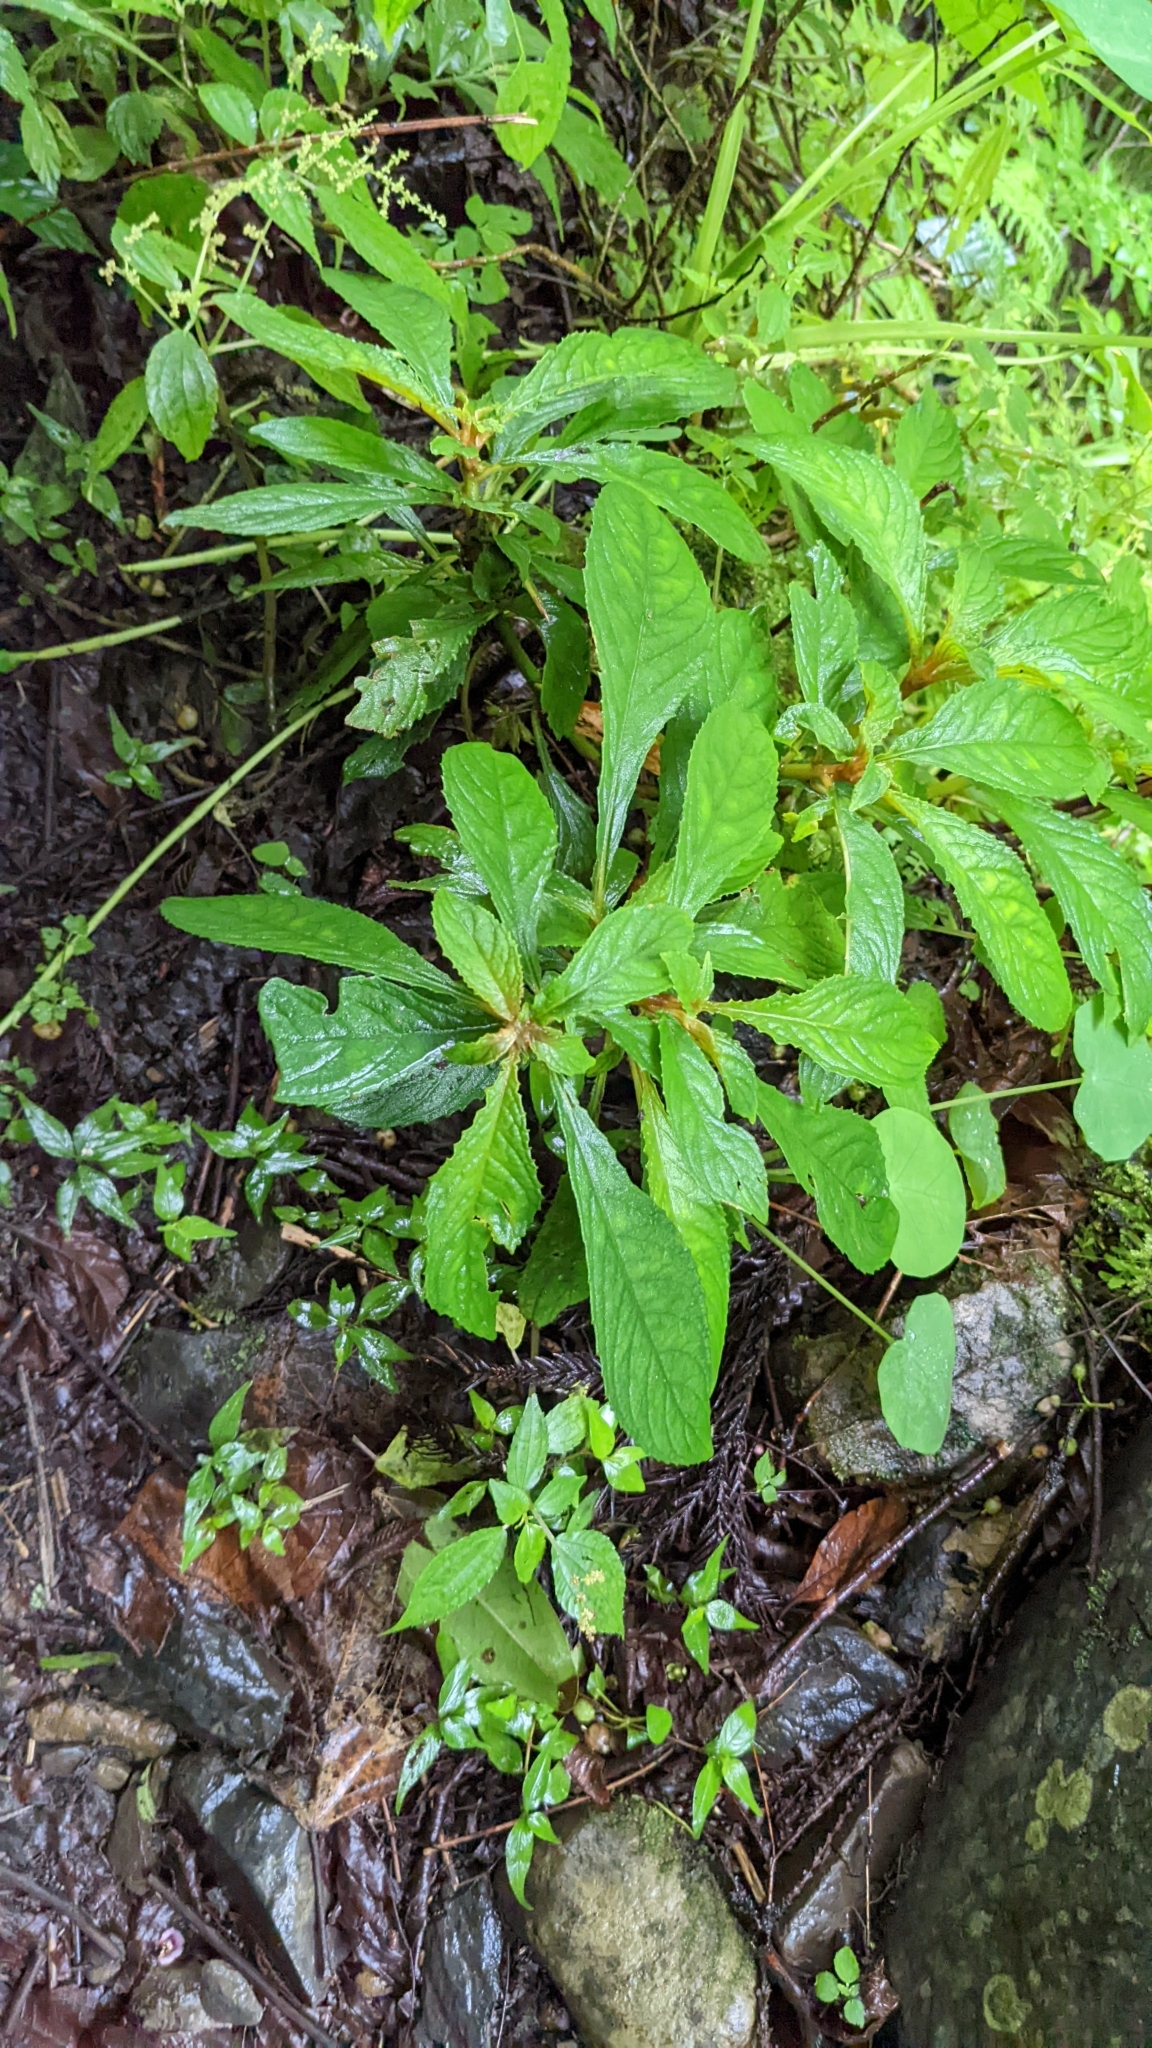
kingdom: Plantae
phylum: Tracheophyta
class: Magnoliopsida
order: Lamiales
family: Gesneriaceae
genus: Rhynchotechum
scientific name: Rhynchotechum discolor
